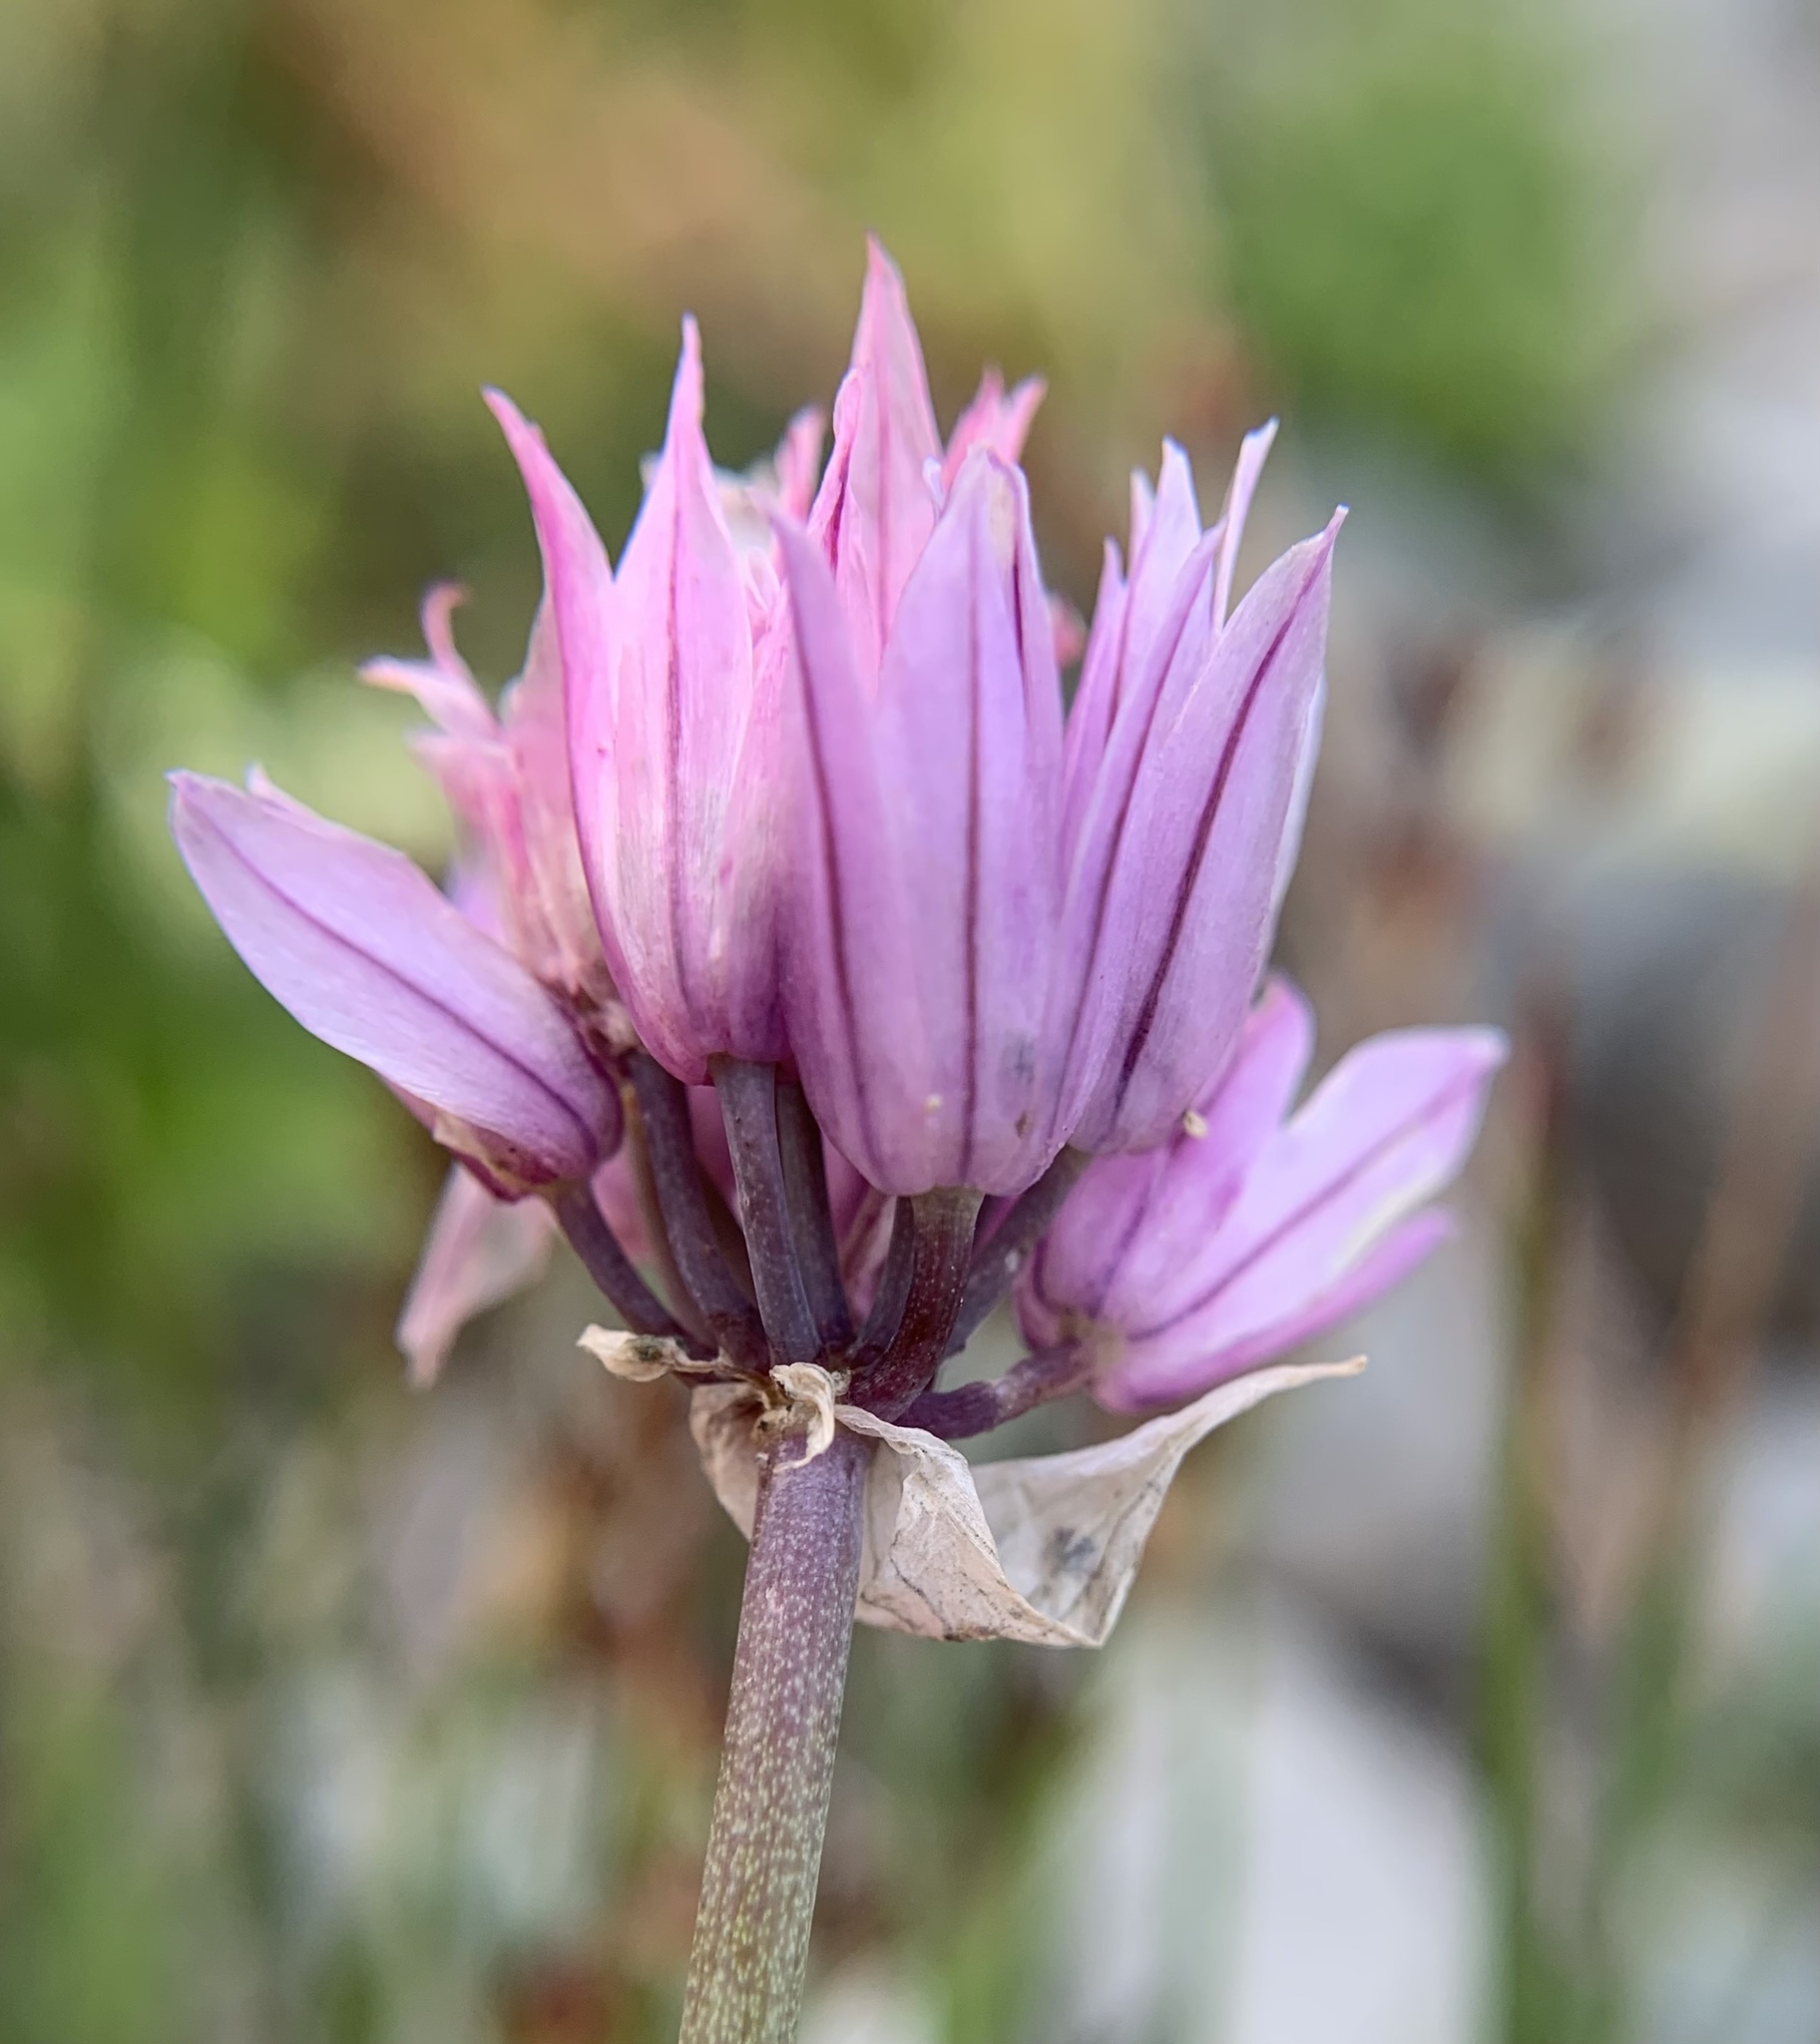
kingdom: Plantae
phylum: Tracheophyta
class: Liliopsida
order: Asparagales
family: Amaryllidaceae
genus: Allium
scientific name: Allium schoenoprasum
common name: Chives
